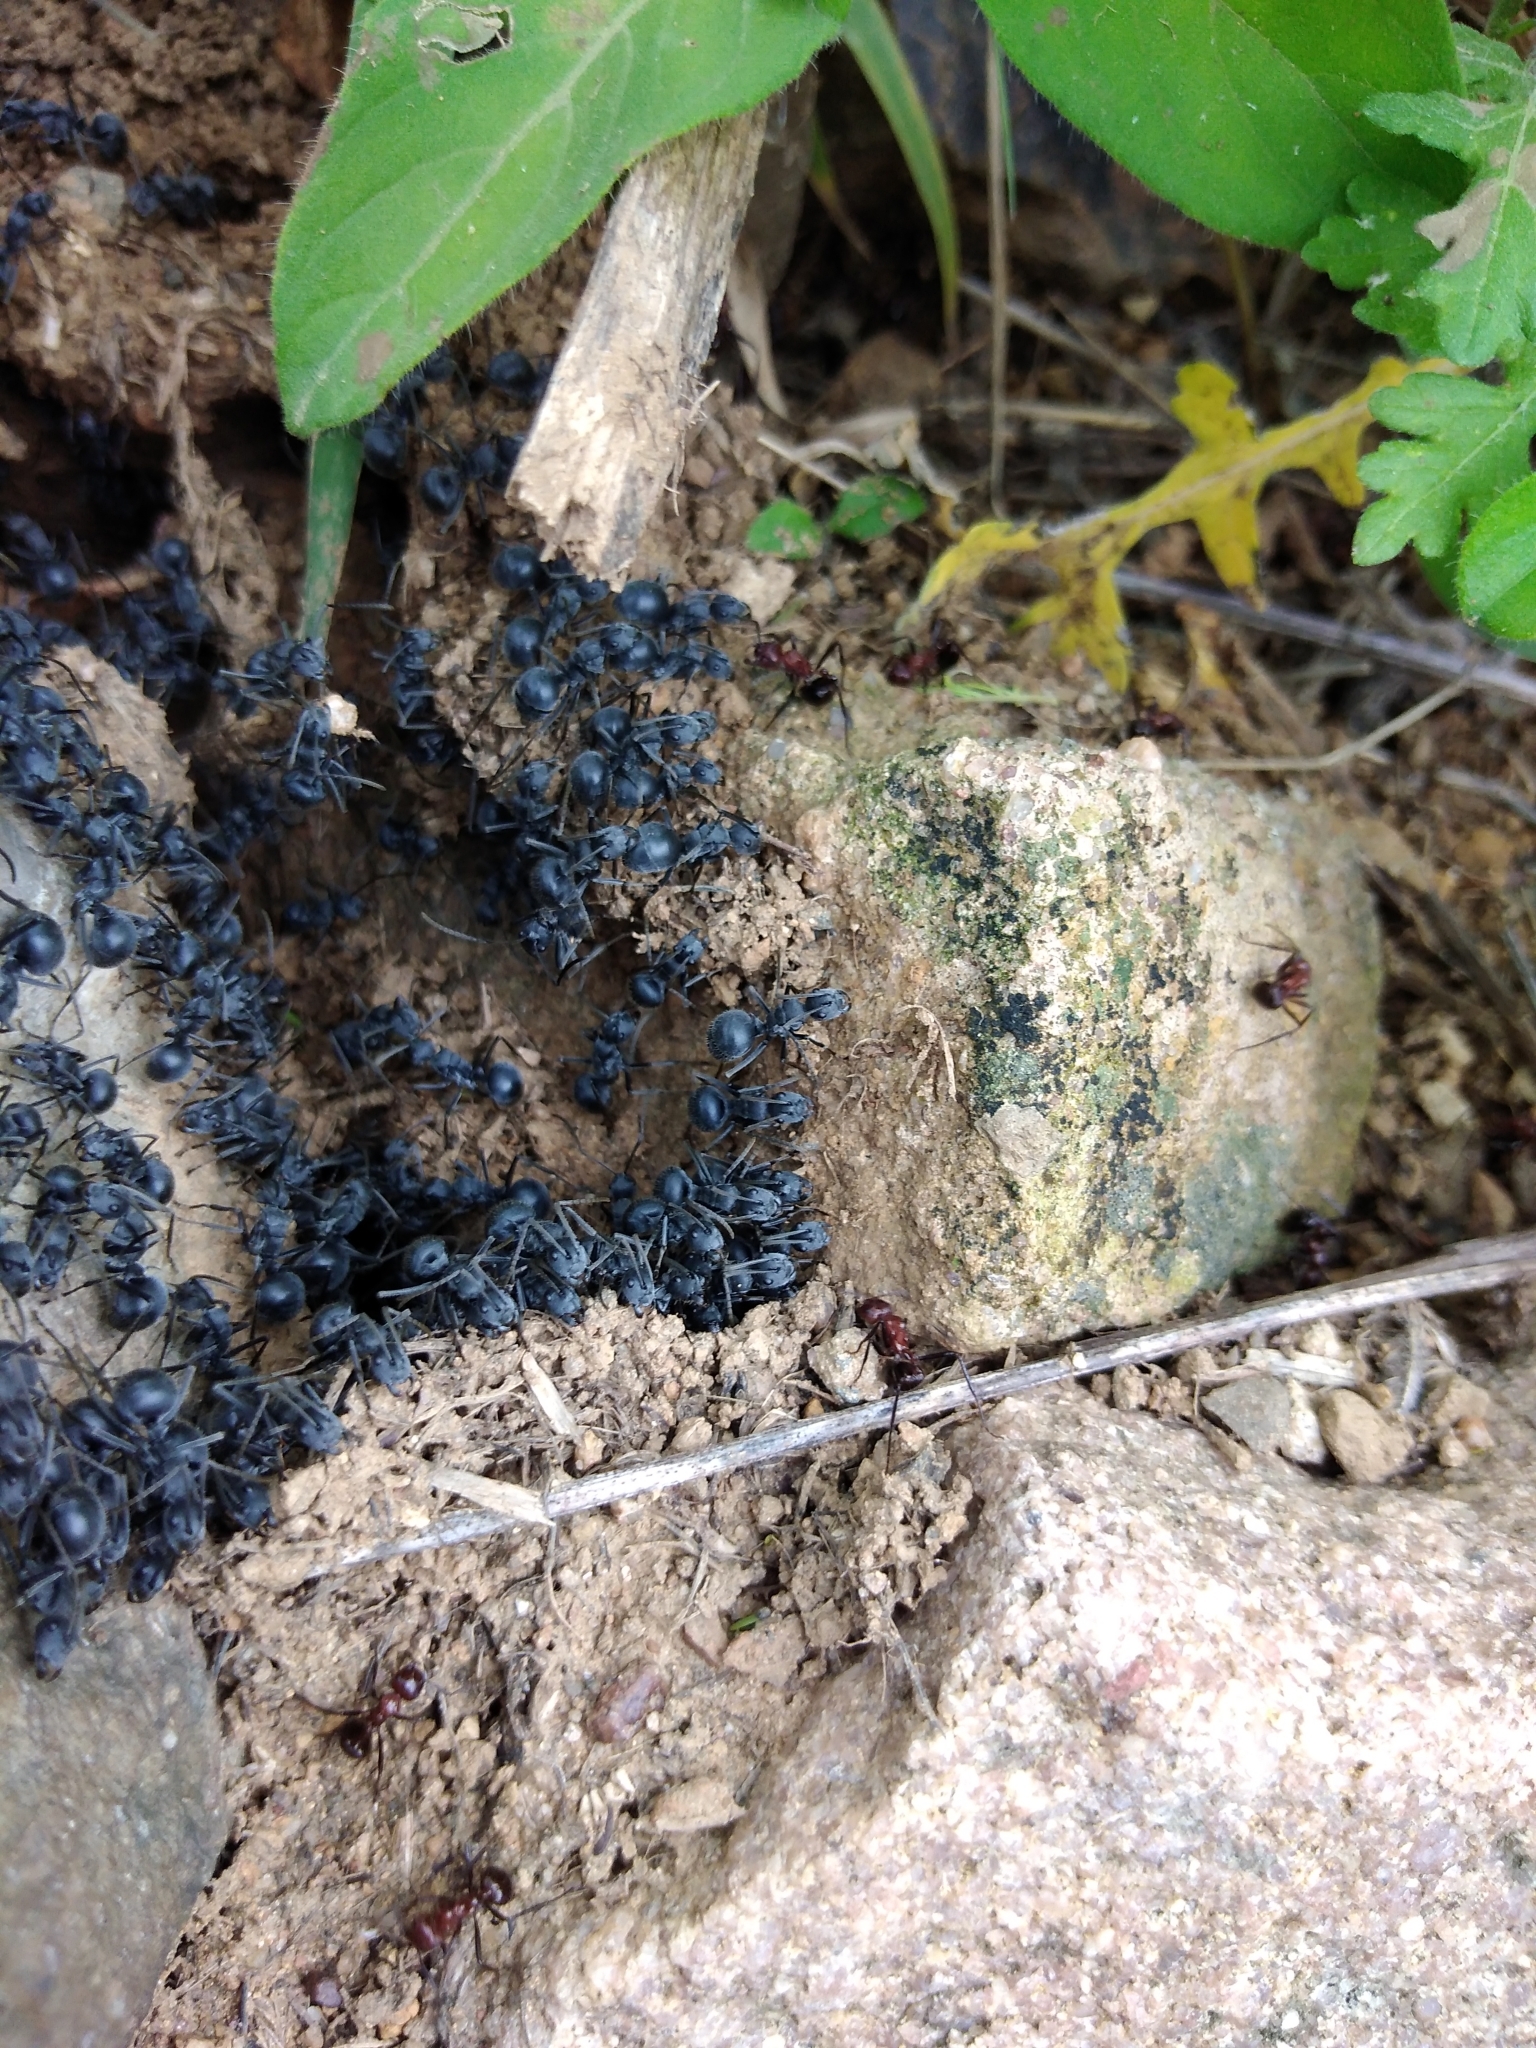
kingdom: Animalia
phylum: Arthropoda
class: Insecta
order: Hymenoptera
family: Formicidae
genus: Polyrhachis
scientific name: Polyrhachis schistacea
